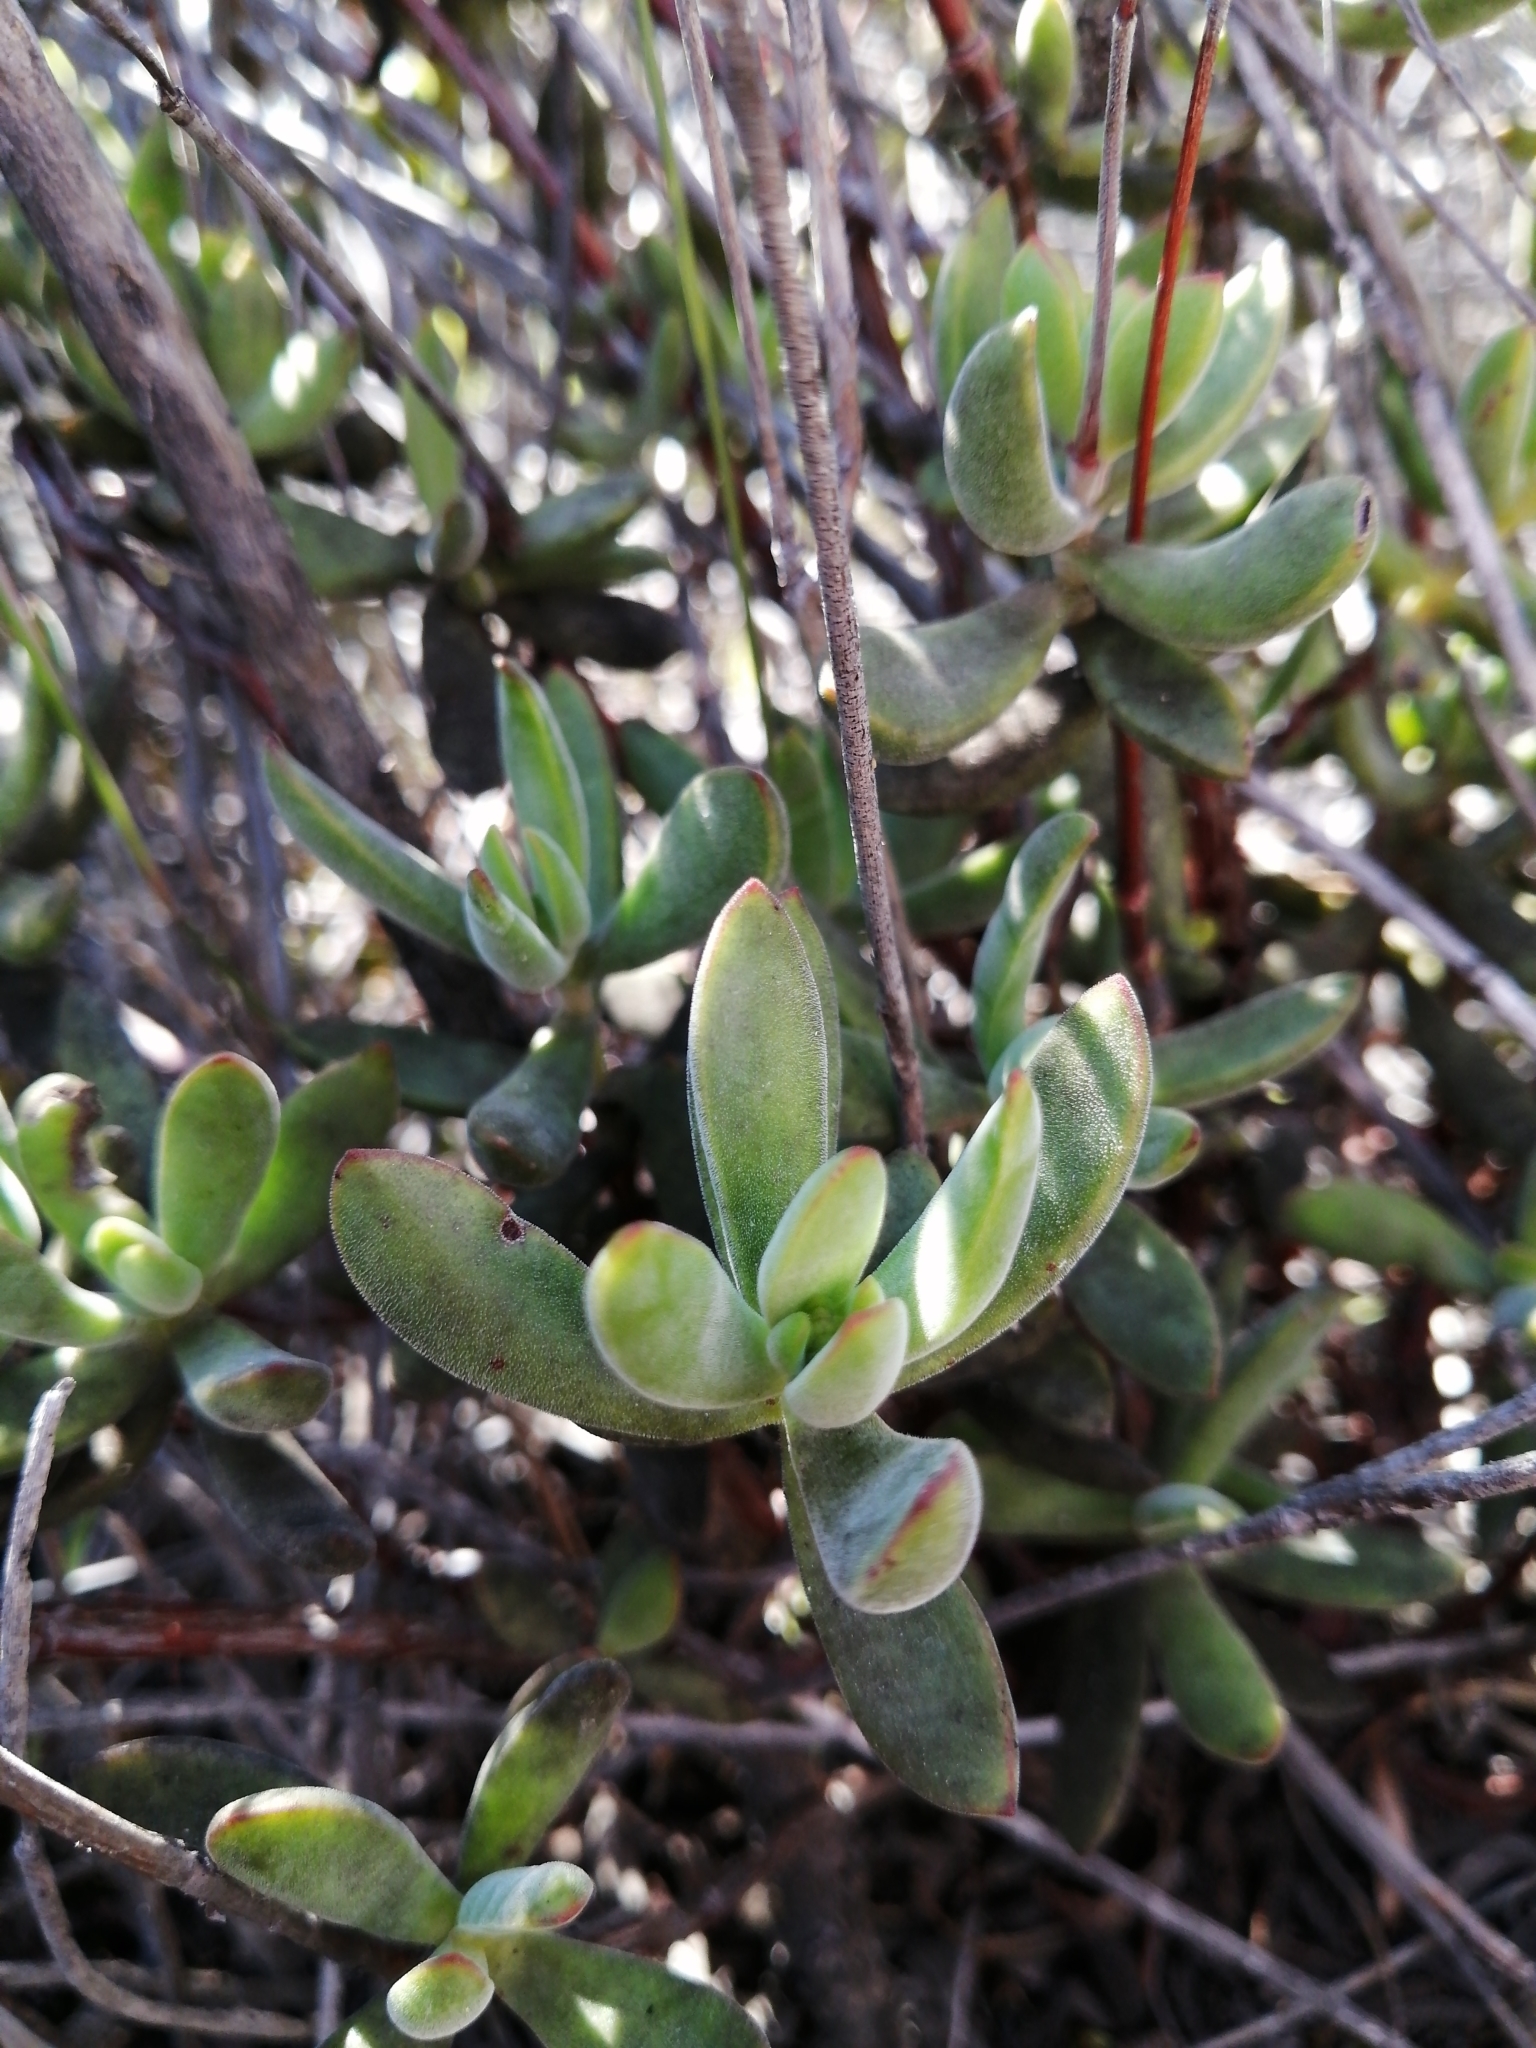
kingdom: Plantae
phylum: Tracheophyta
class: Magnoliopsida
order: Saxifragales
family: Crassulaceae
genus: Crassula
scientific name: Crassula atropurpurea
